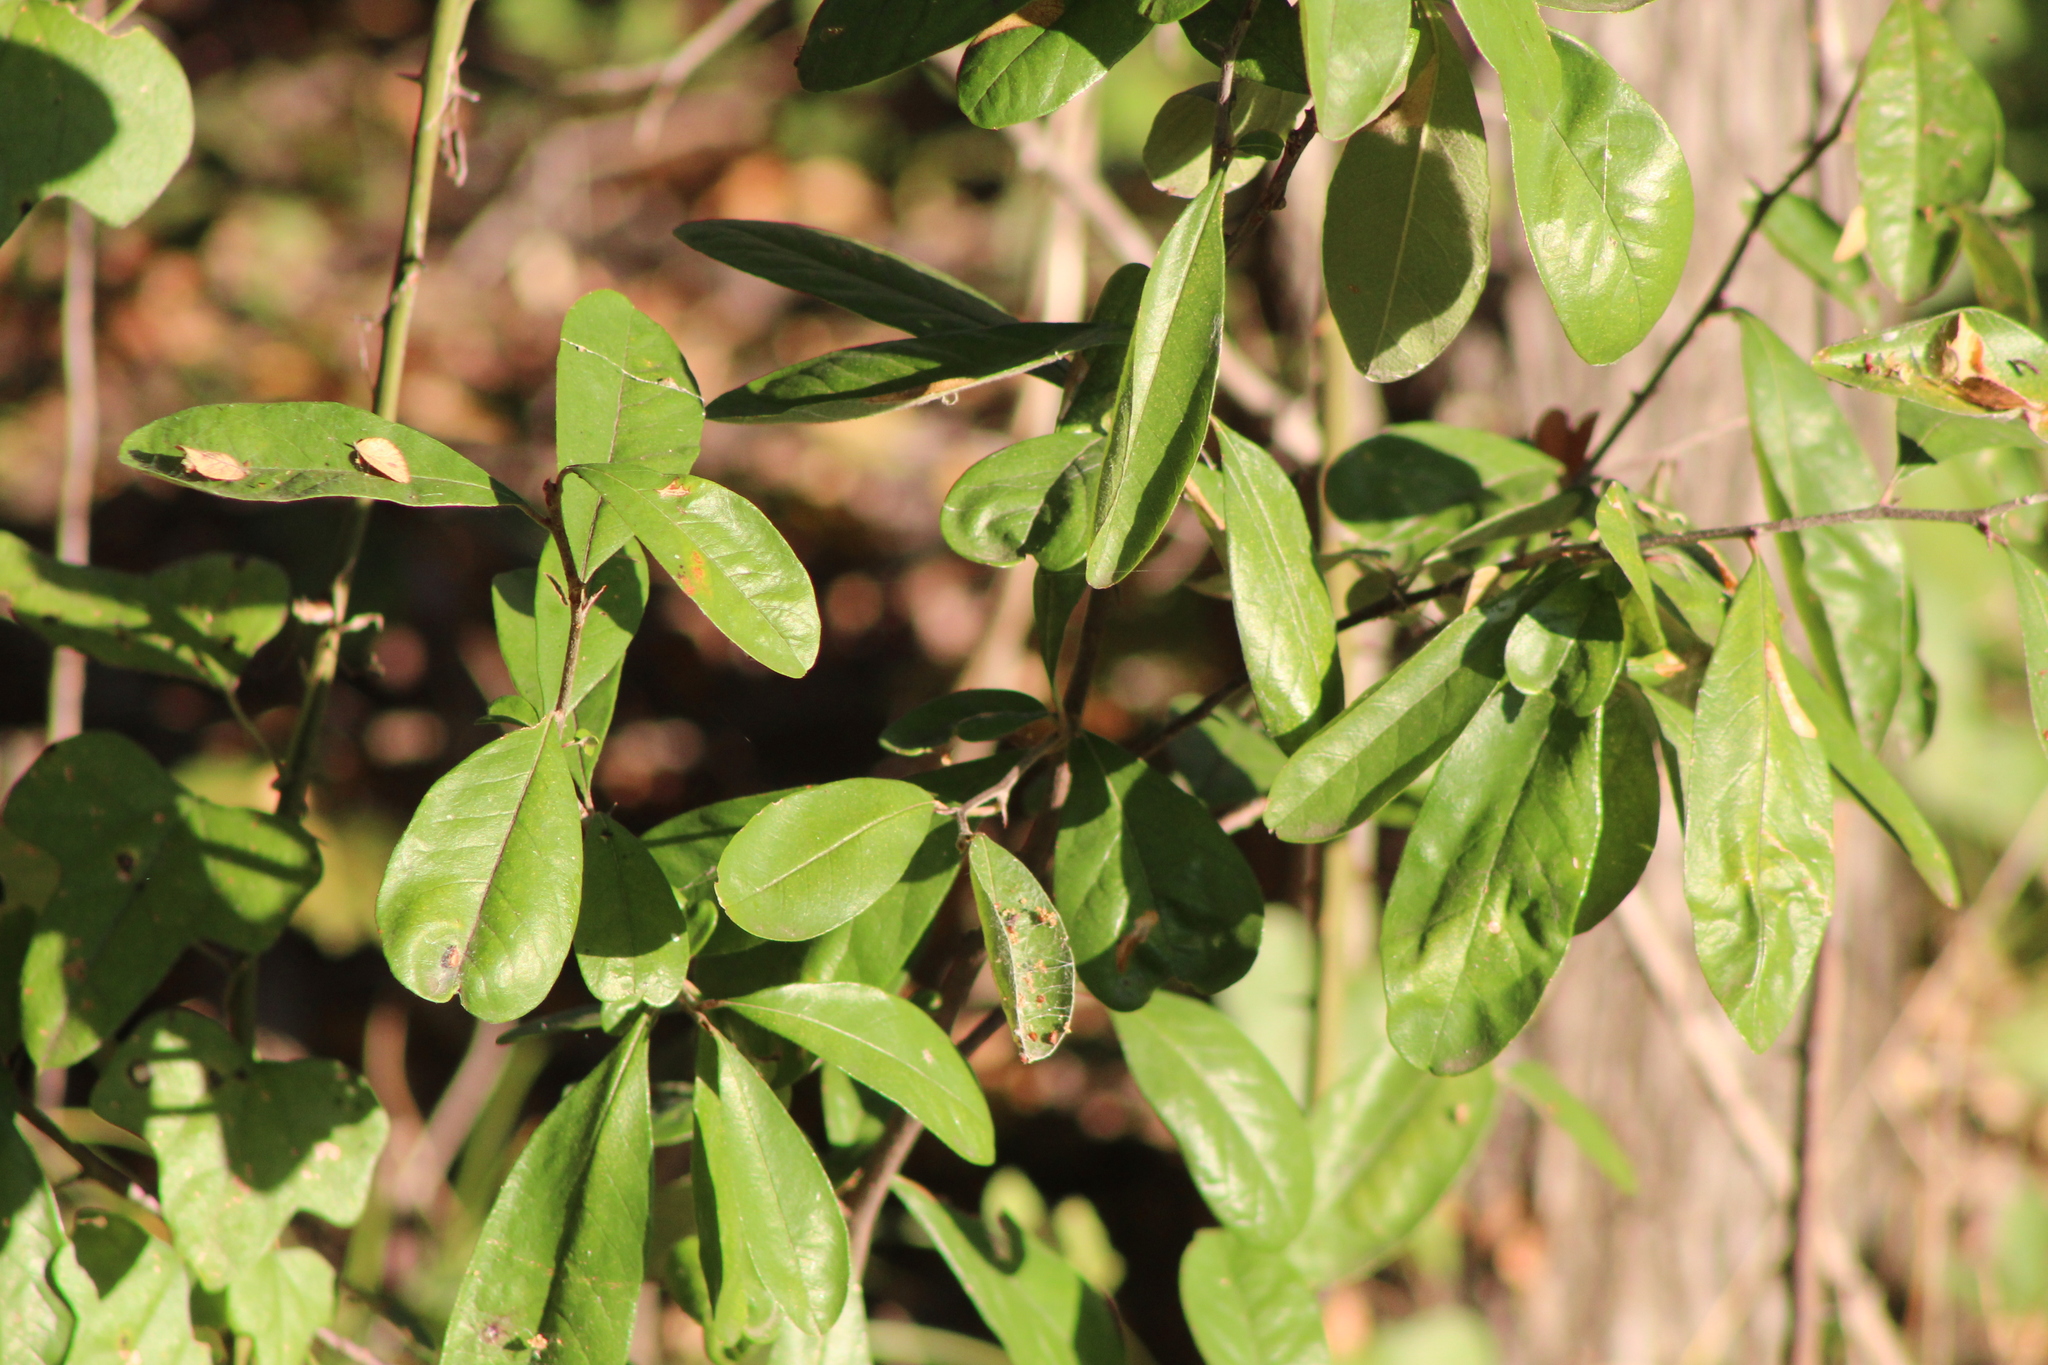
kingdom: Plantae
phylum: Tracheophyta
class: Magnoliopsida
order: Ericales
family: Sapotaceae
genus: Sideroxylon
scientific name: Sideroxylon lanuginosum
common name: Chittamwood
